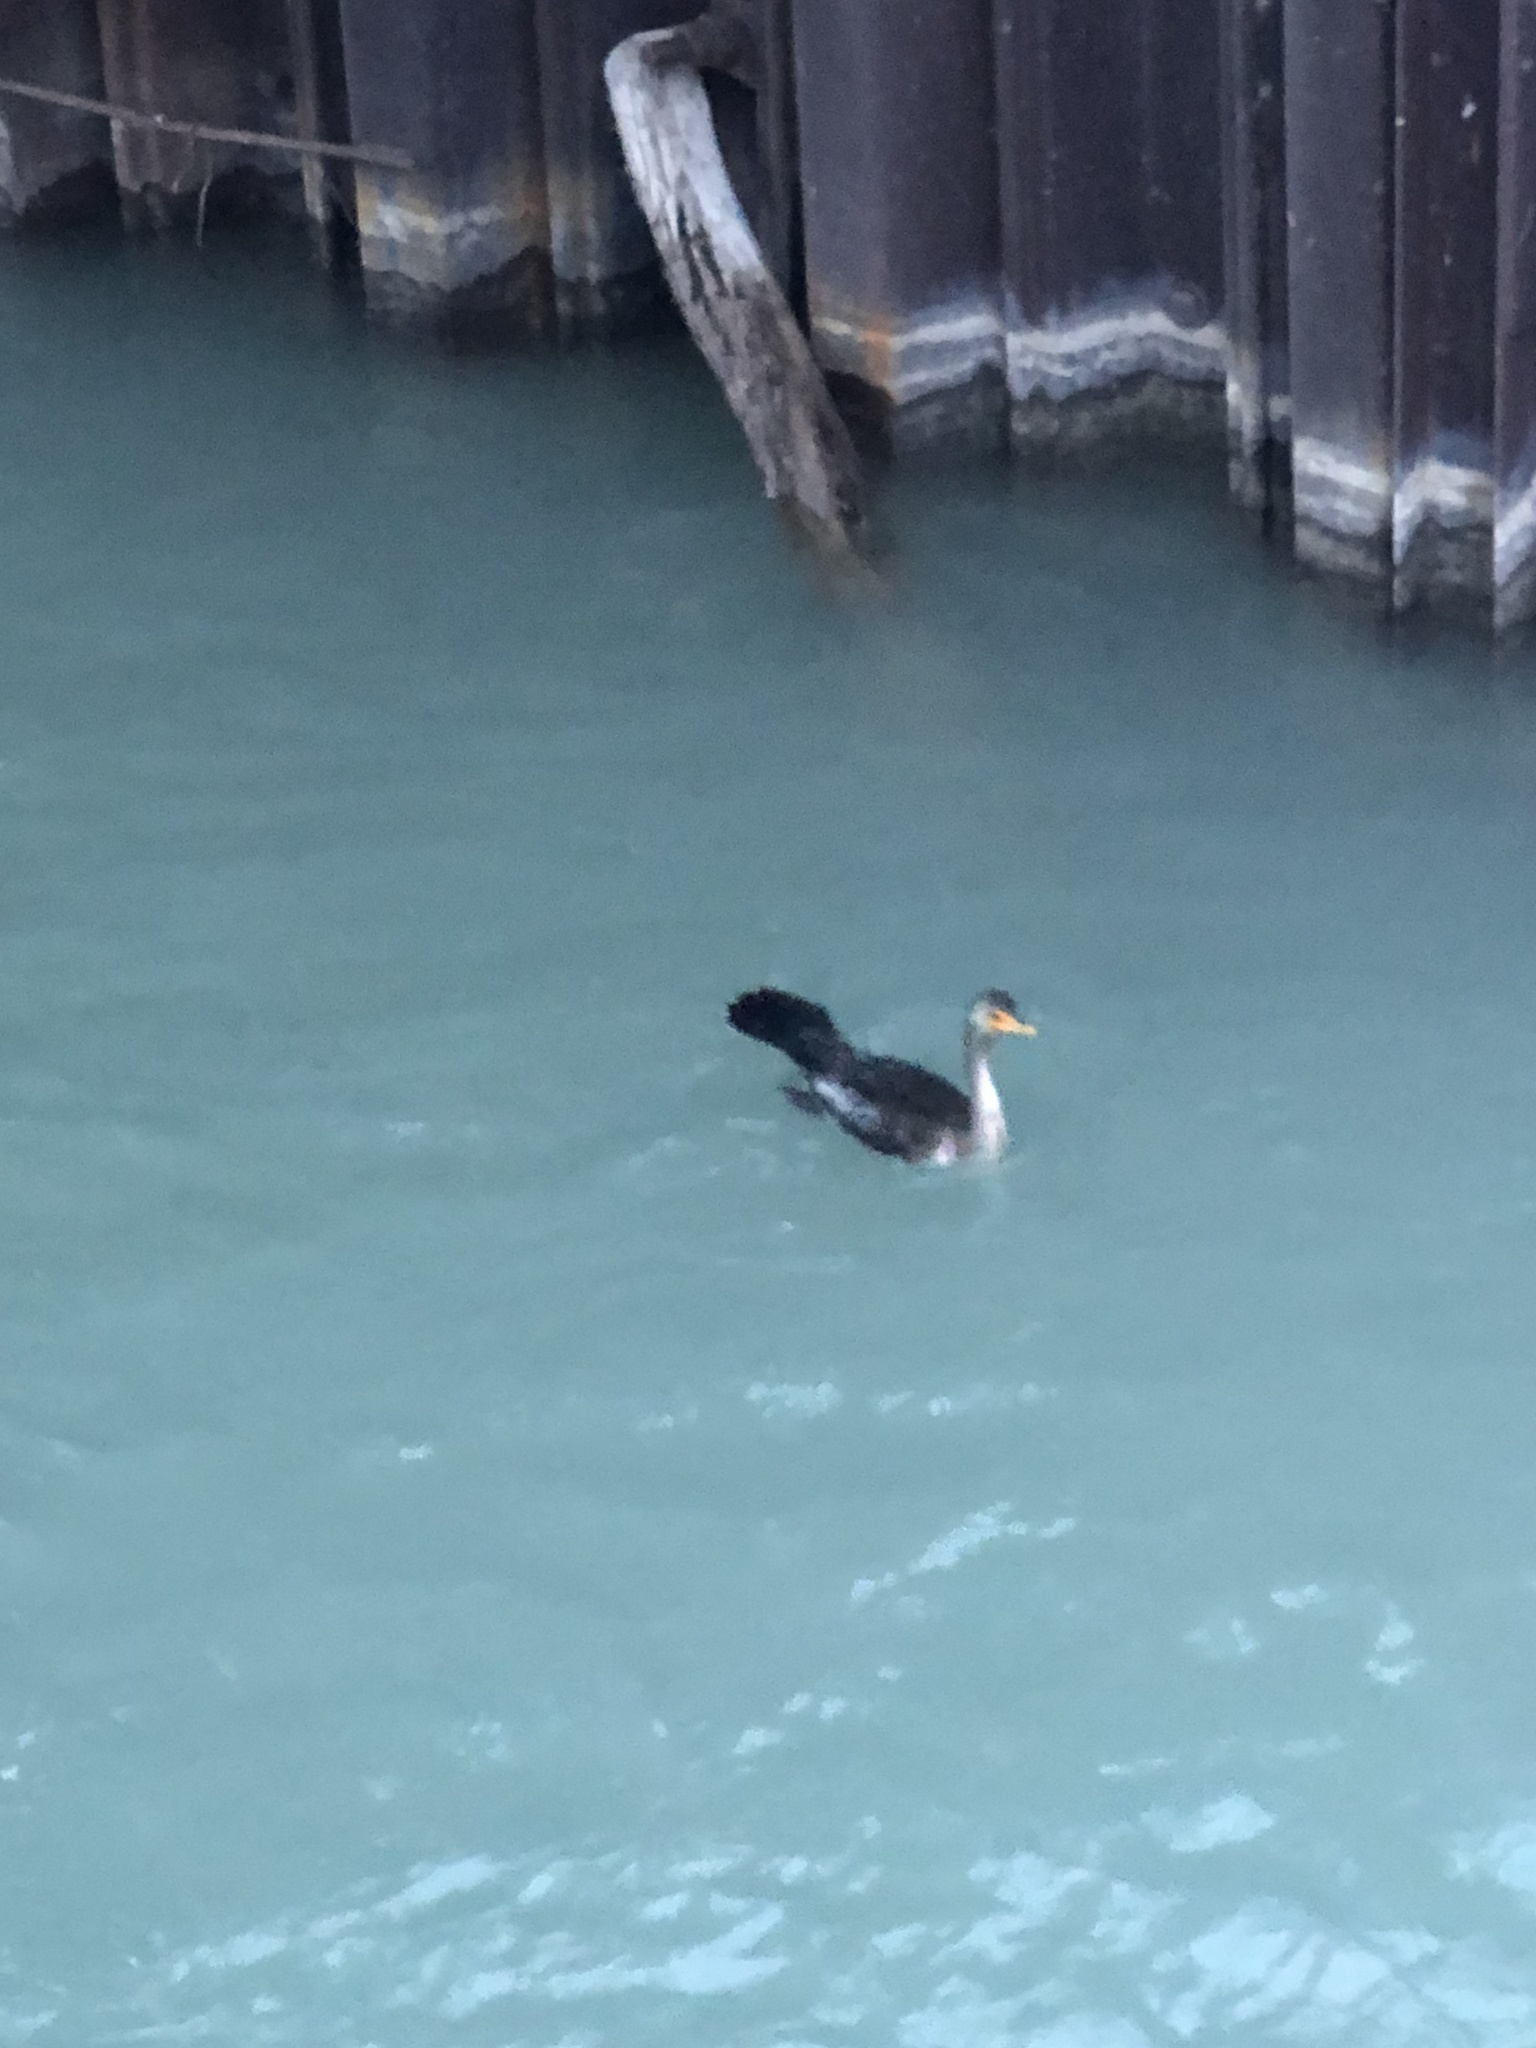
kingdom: Animalia
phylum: Chordata
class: Aves
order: Suliformes
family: Phalacrocoracidae
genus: Phalacrocorax
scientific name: Phalacrocorax auritus
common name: Double-crested cormorant
